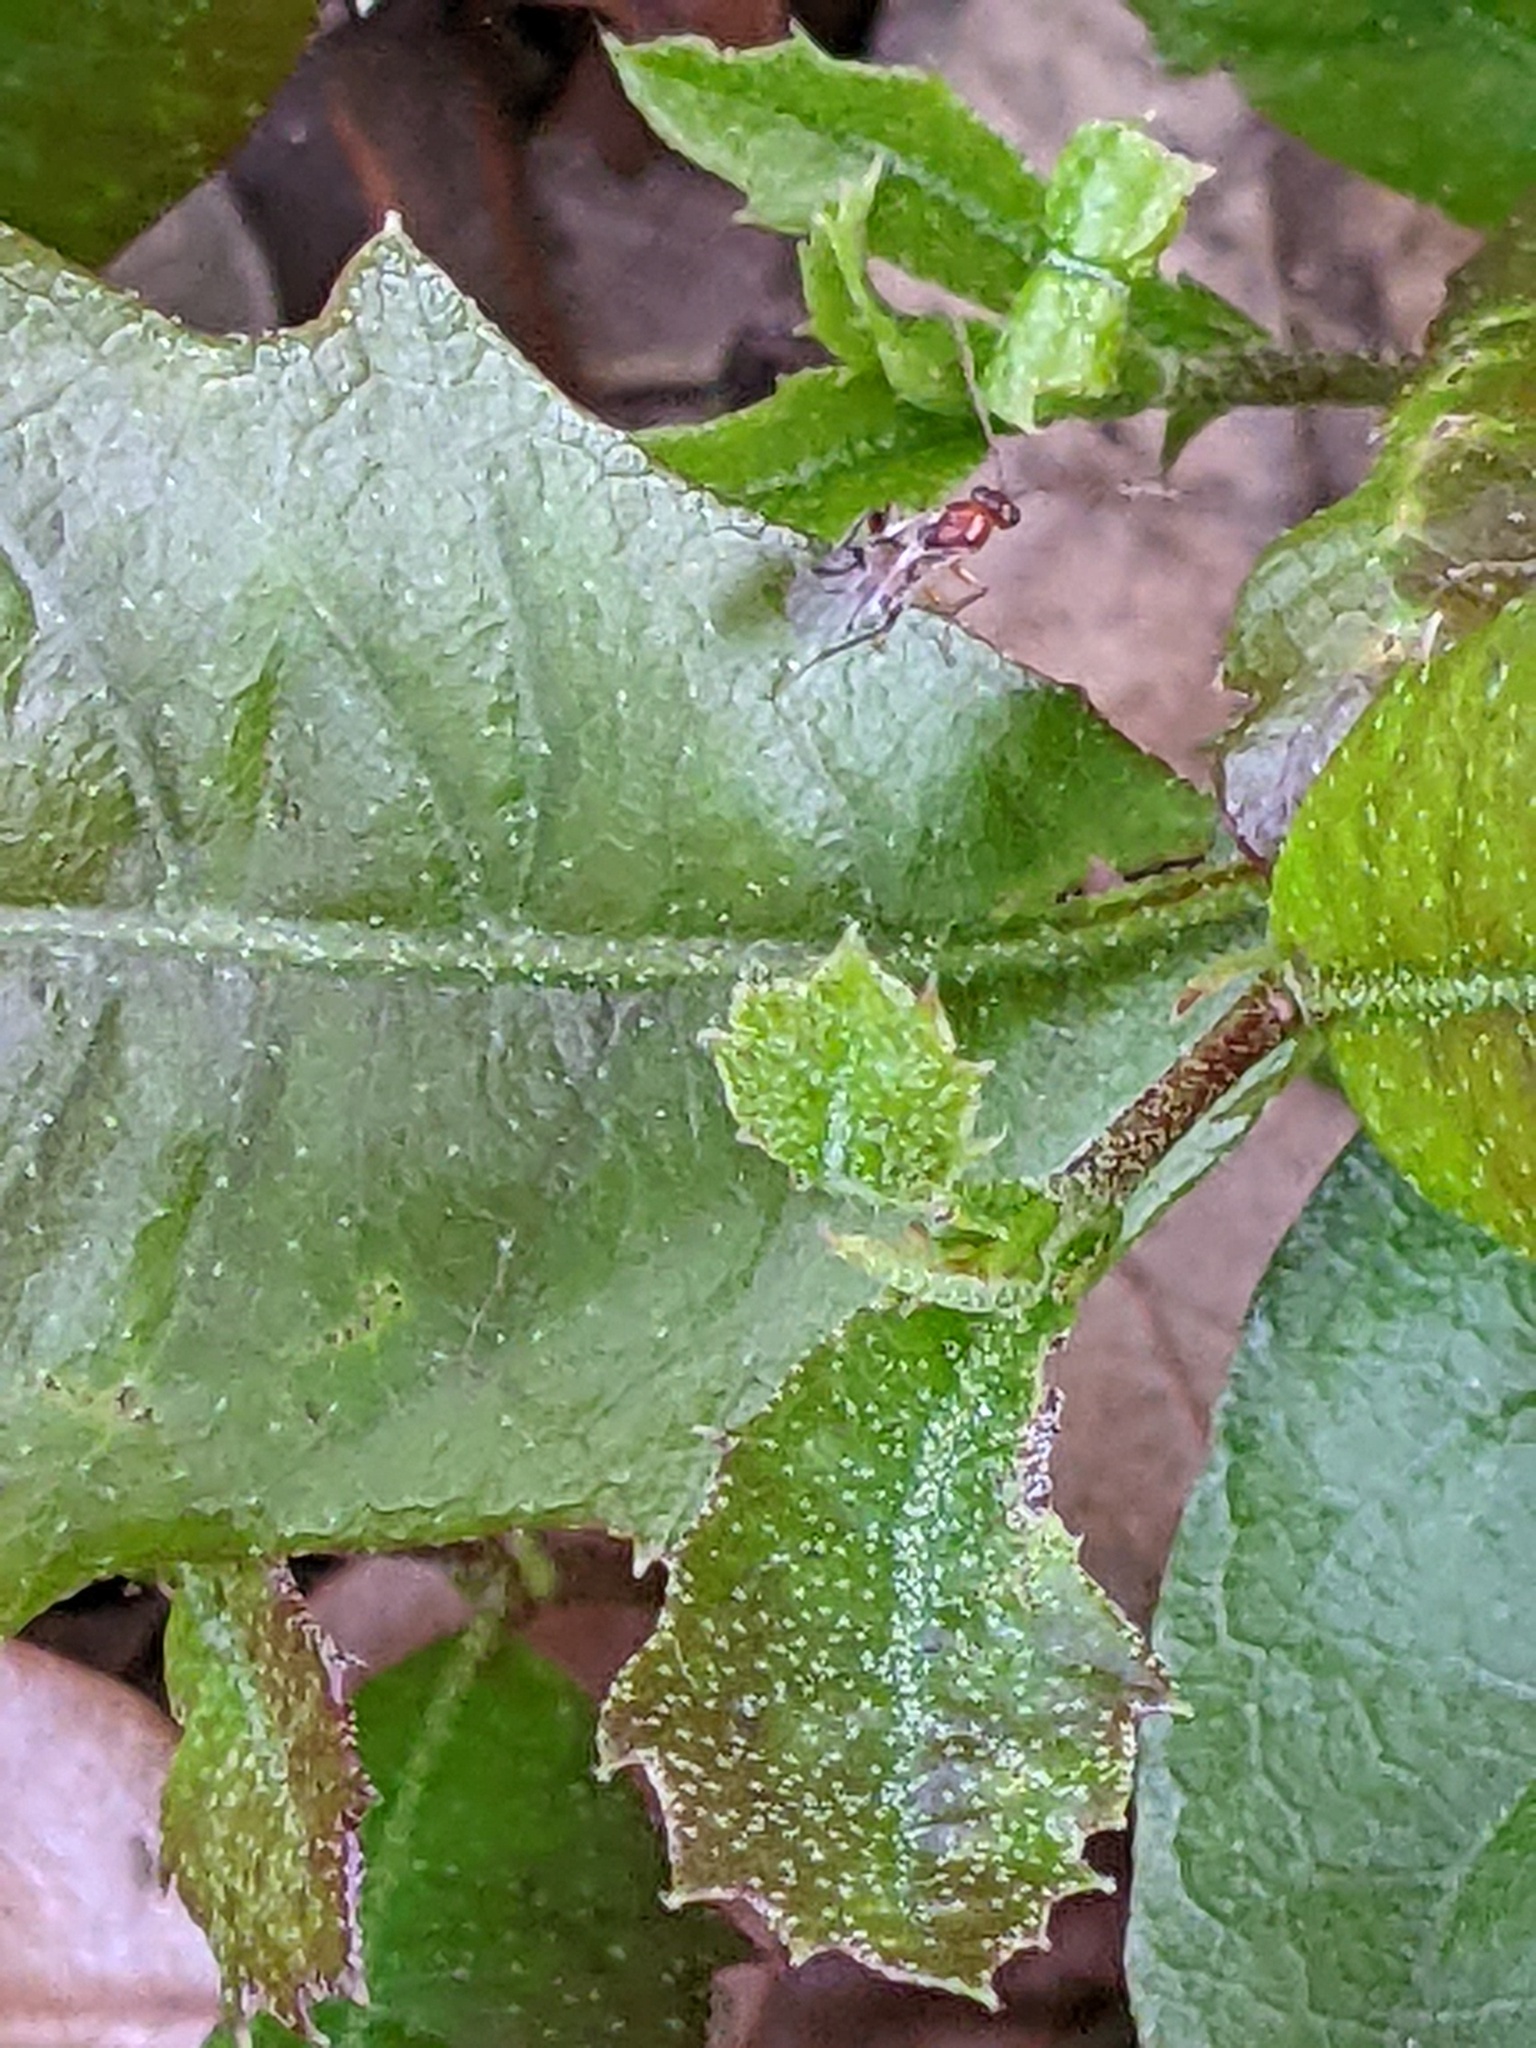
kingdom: Animalia
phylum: Arthropoda
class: Insecta
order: Hymenoptera
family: Cynipidae
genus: Belonocnema
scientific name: Belonocnema kinseyi
